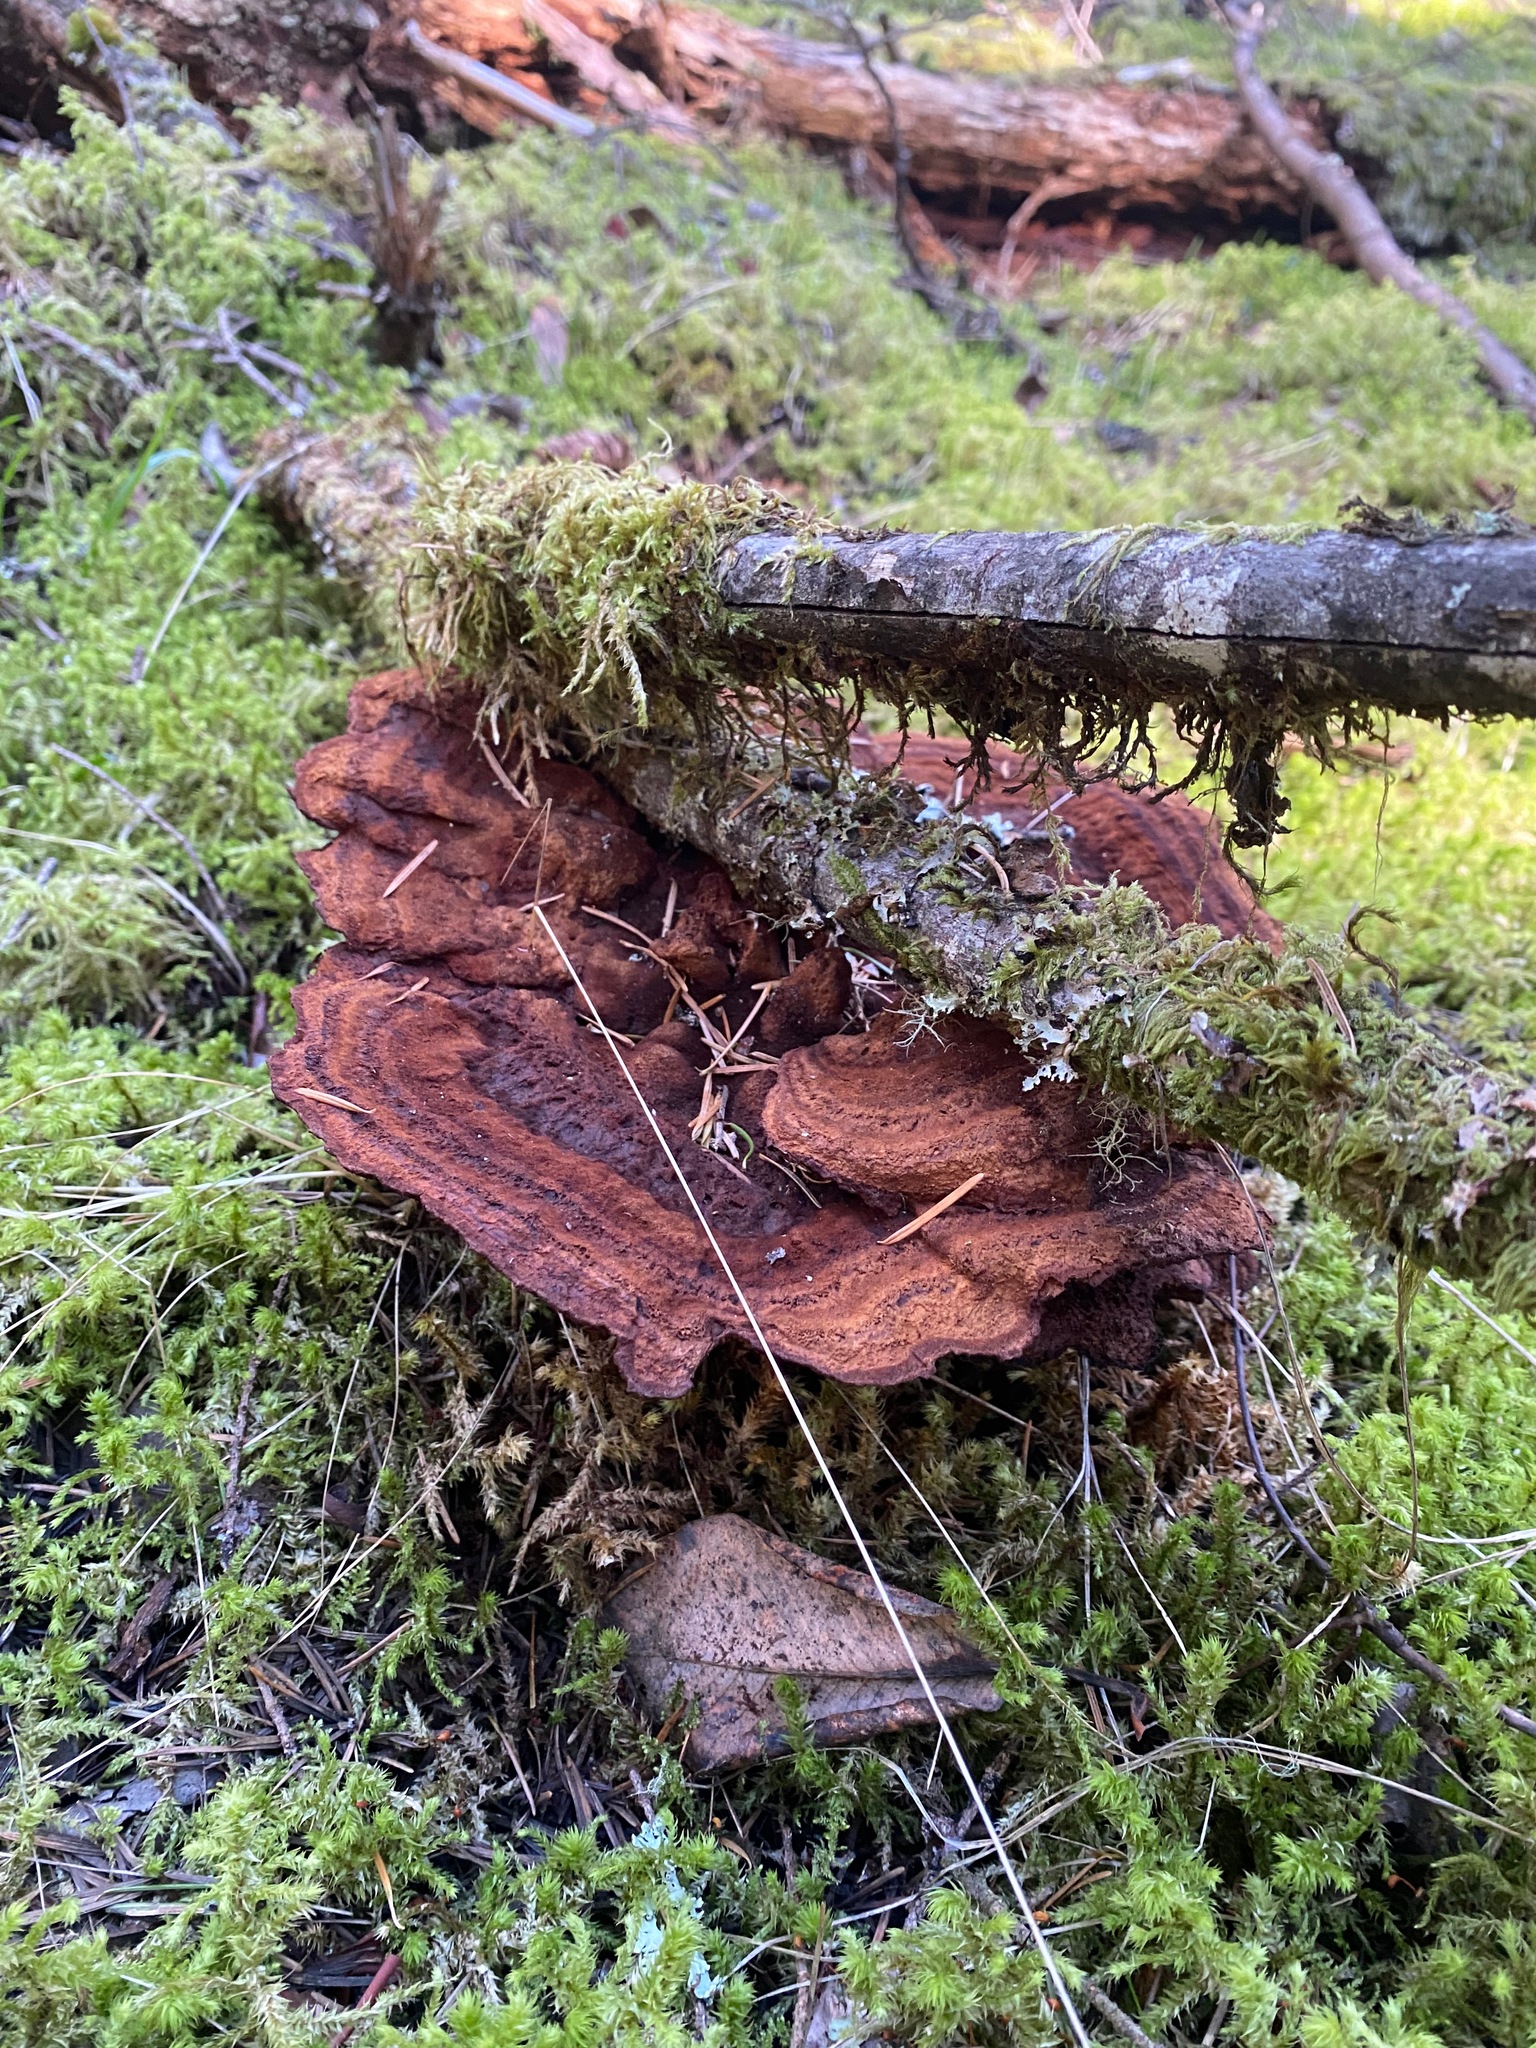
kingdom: Fungi
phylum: Basidiomycota
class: Agaricomycetes
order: Polyporales
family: Laetiporaceae
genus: Phaeolus
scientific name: Phaeolus schweinitzii
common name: Dyer's mazegill
